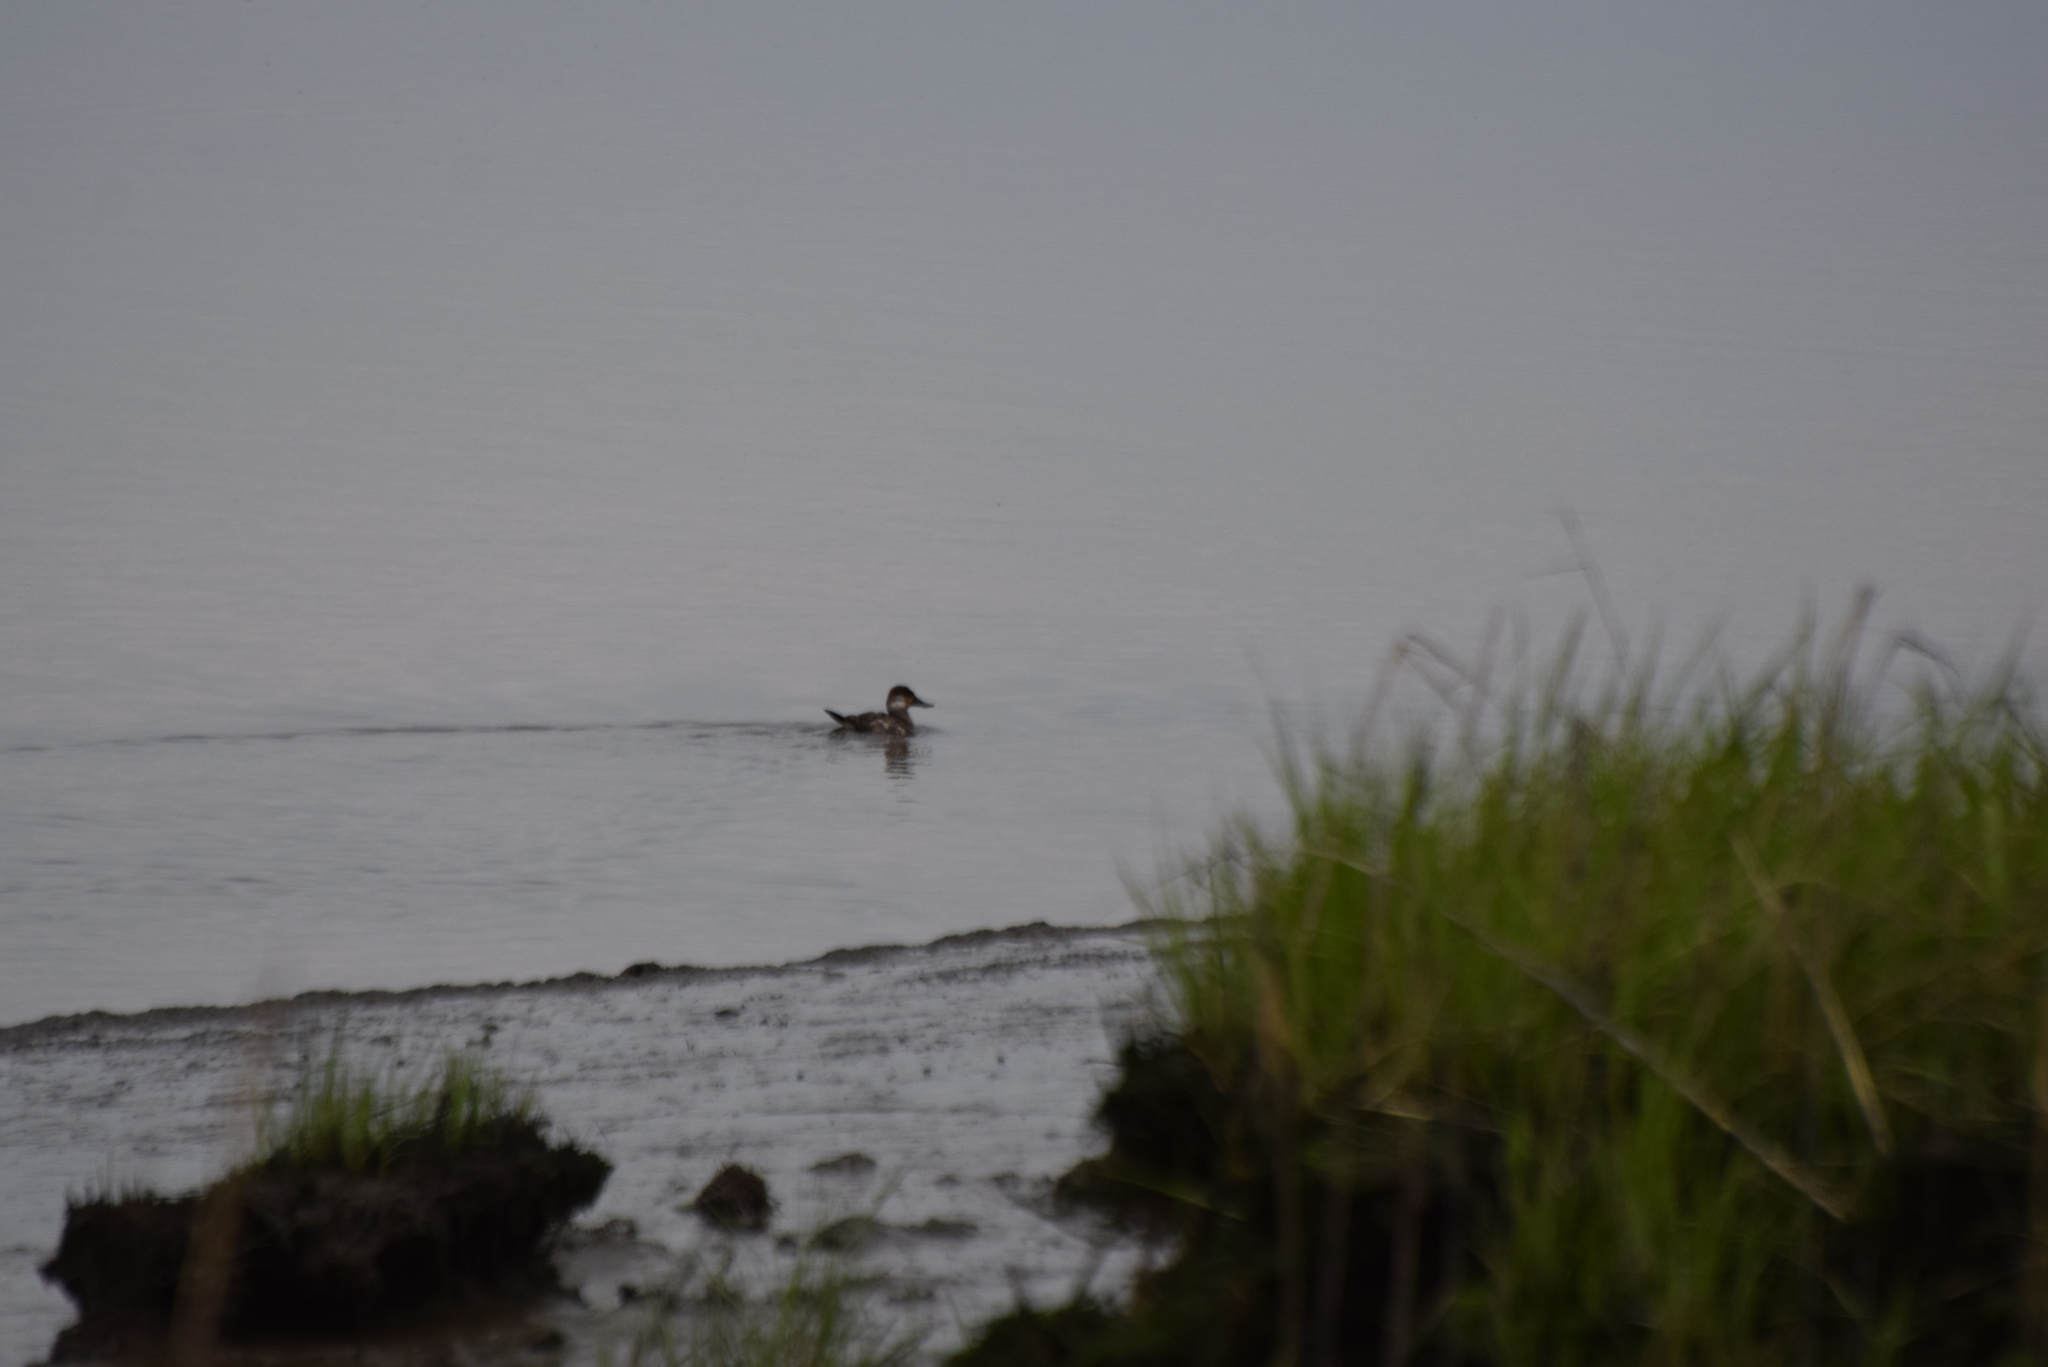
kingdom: Animalia
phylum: Chordata
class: Aves
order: Anseriformes
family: Anatidae
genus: Oxyura
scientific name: Oxyura jamaicensis
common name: Ruddy duck
